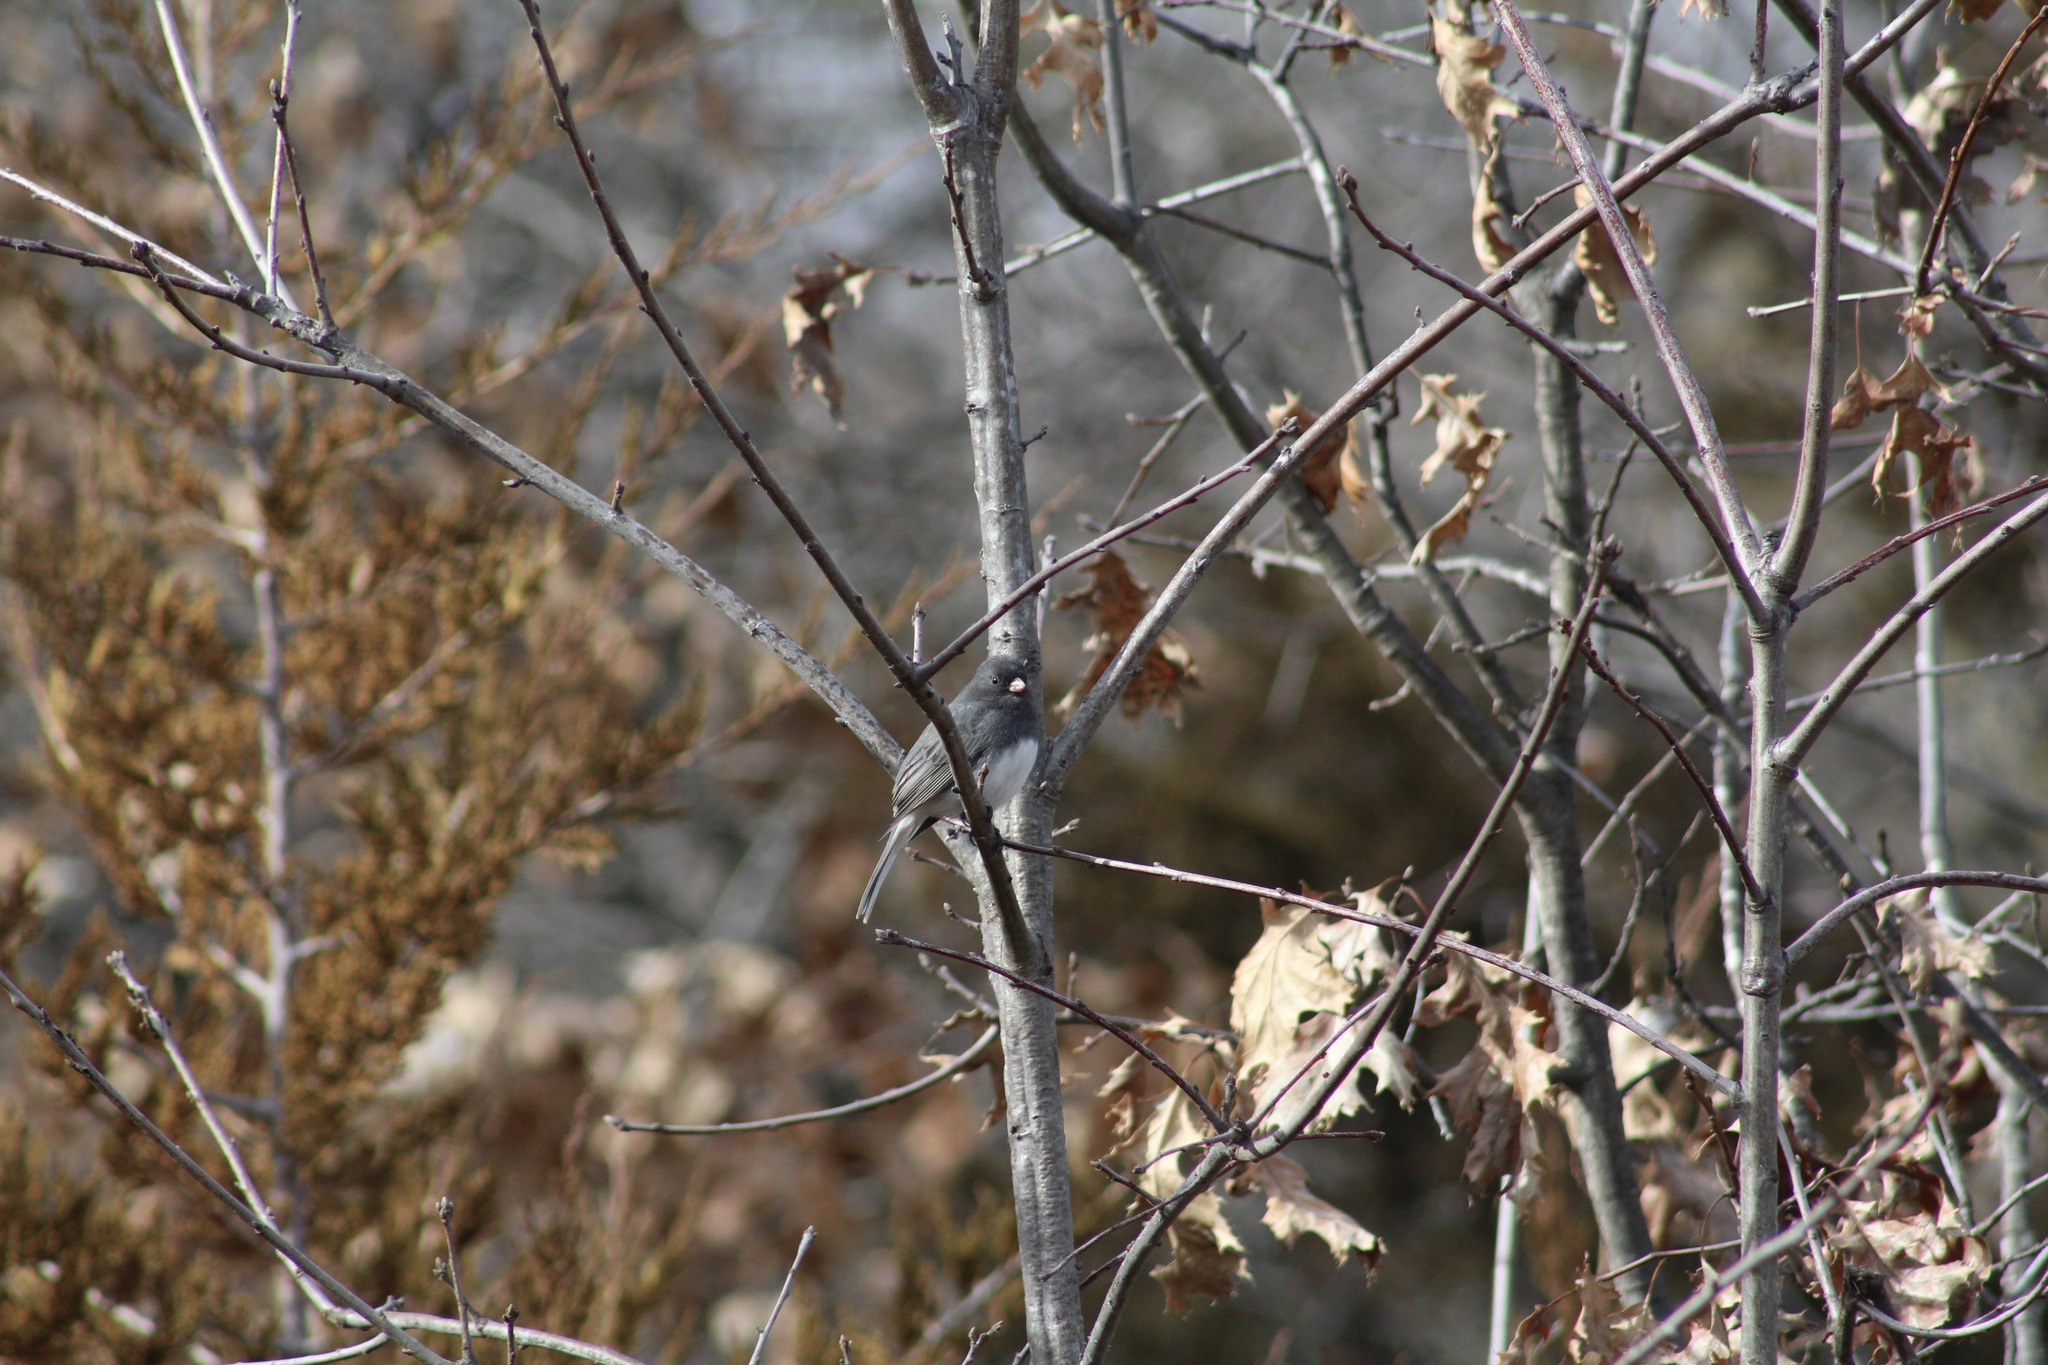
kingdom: Animalia
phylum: Chordata
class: Aves
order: Passeriformes
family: Passerellidae
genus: Junco
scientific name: Junco hyemalis
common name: Dark-eyed junco
